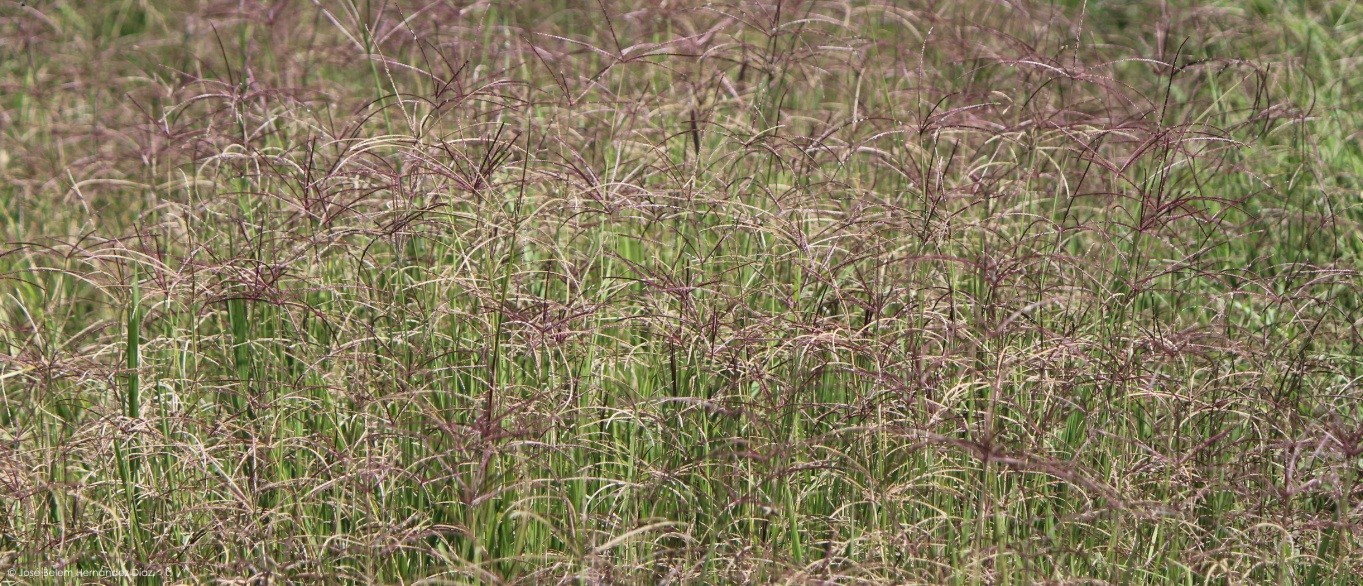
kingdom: Plantae
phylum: Tracheophyta
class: Liliopsida
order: Poales
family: Poaceae
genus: Chloris
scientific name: Chloris gayana
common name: Rhodes grass
